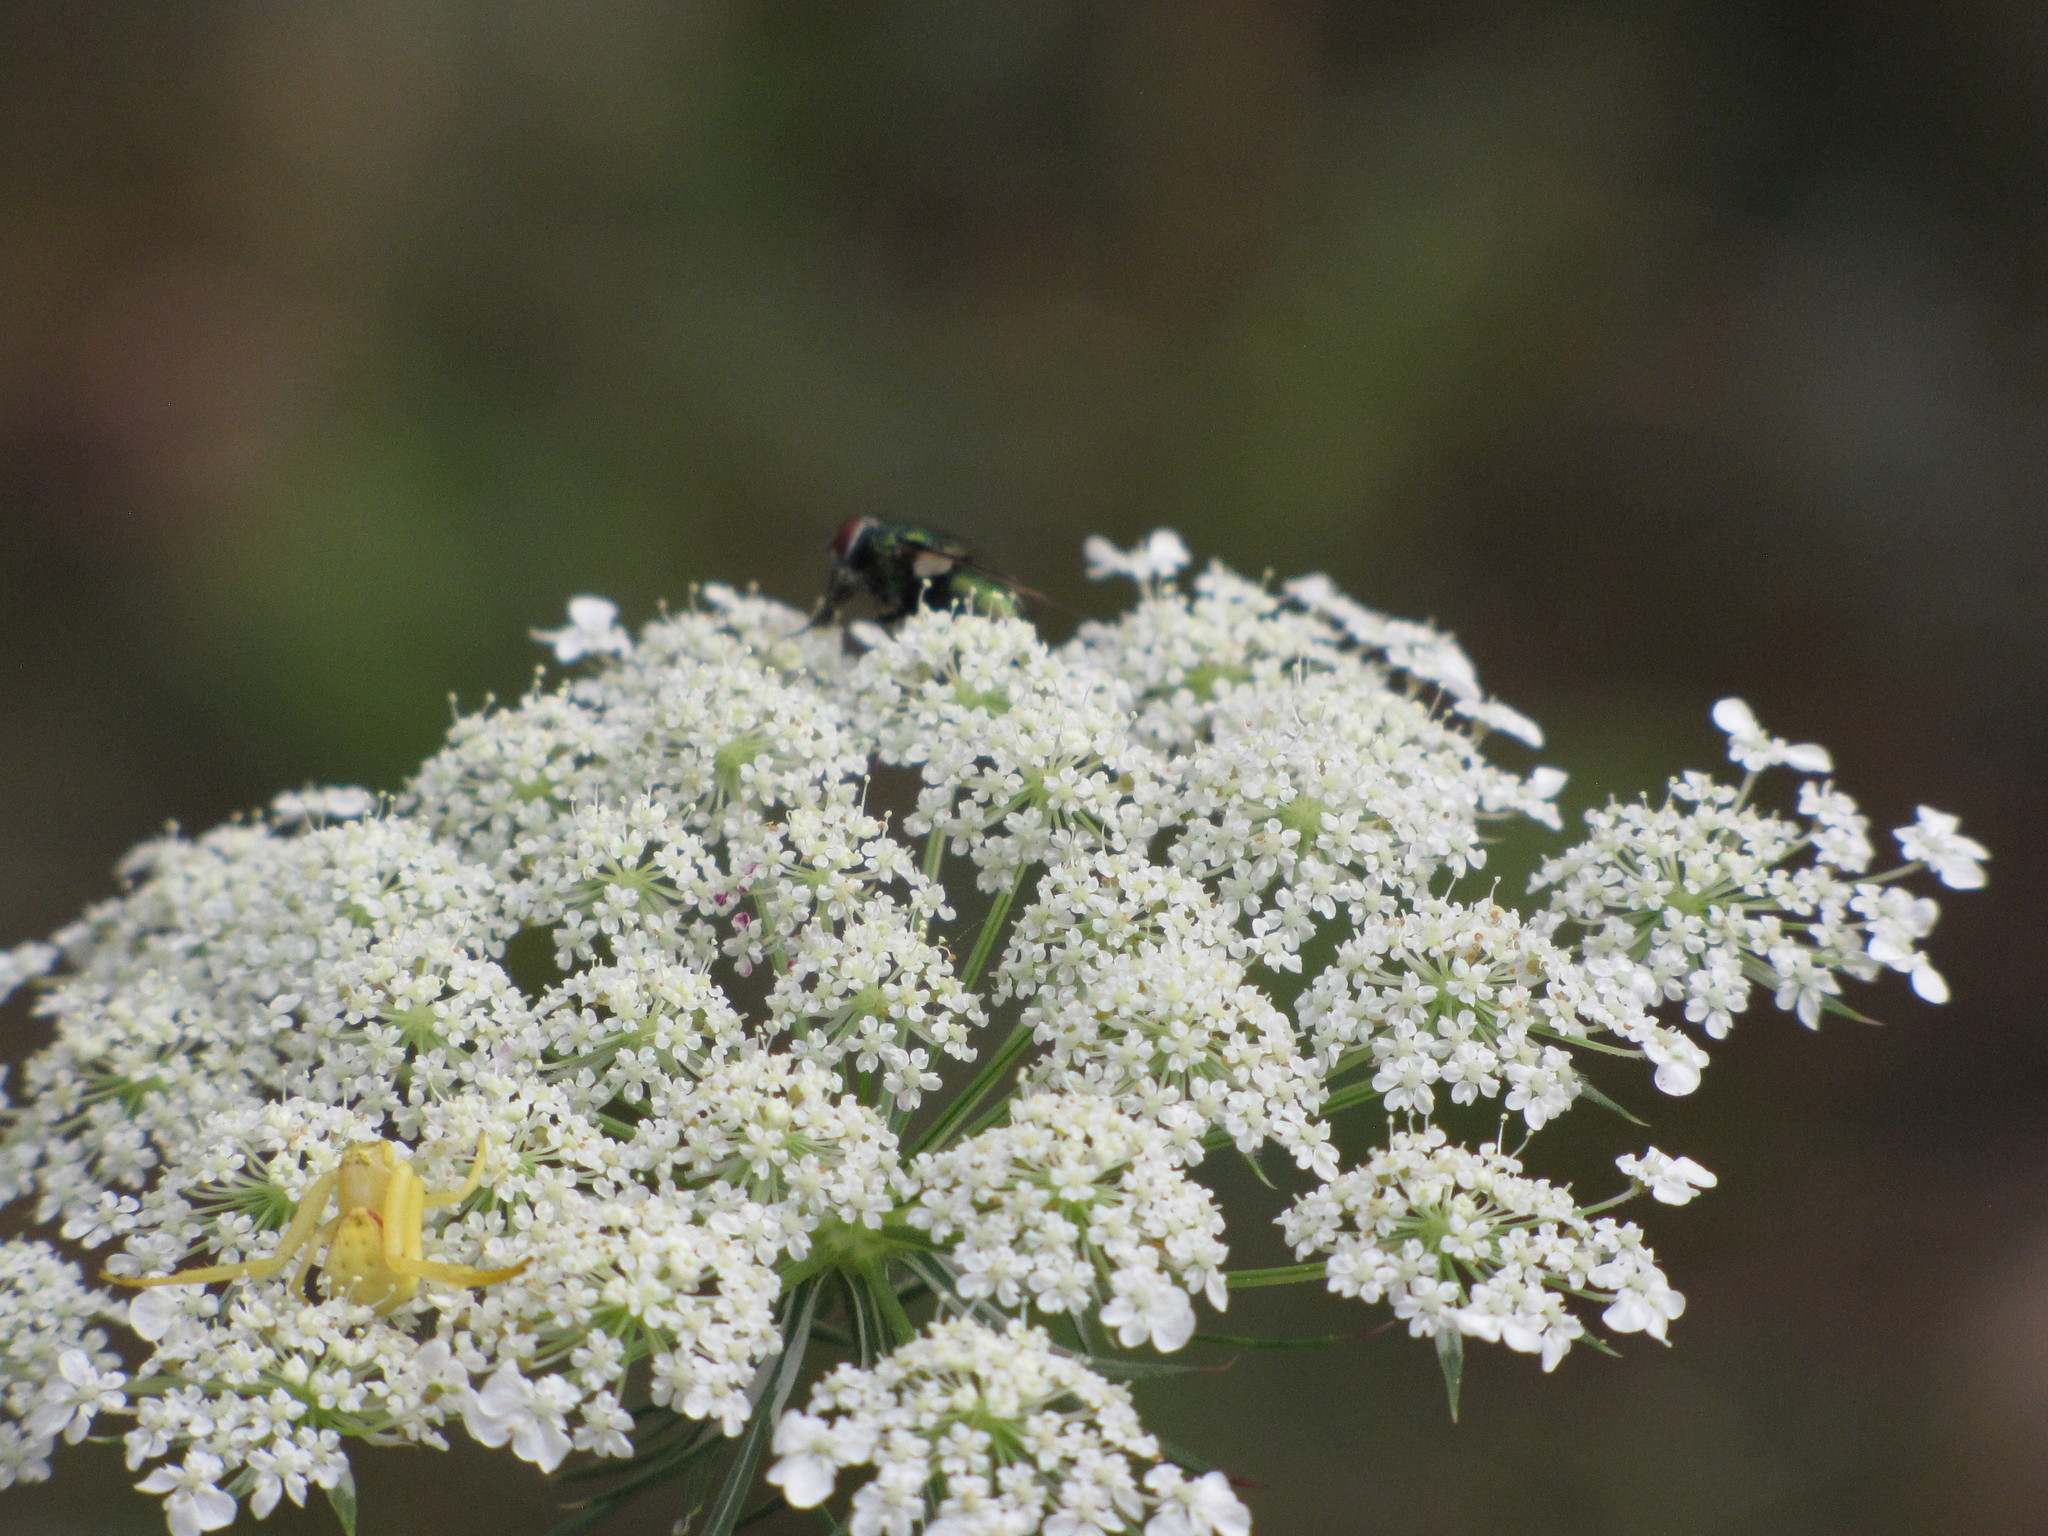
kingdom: Plantae
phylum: Tracheophyta
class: Magnoliopsida
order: Apiales
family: Apiaceae
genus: Daucus
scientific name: Daucus carota
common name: Wild carrot
